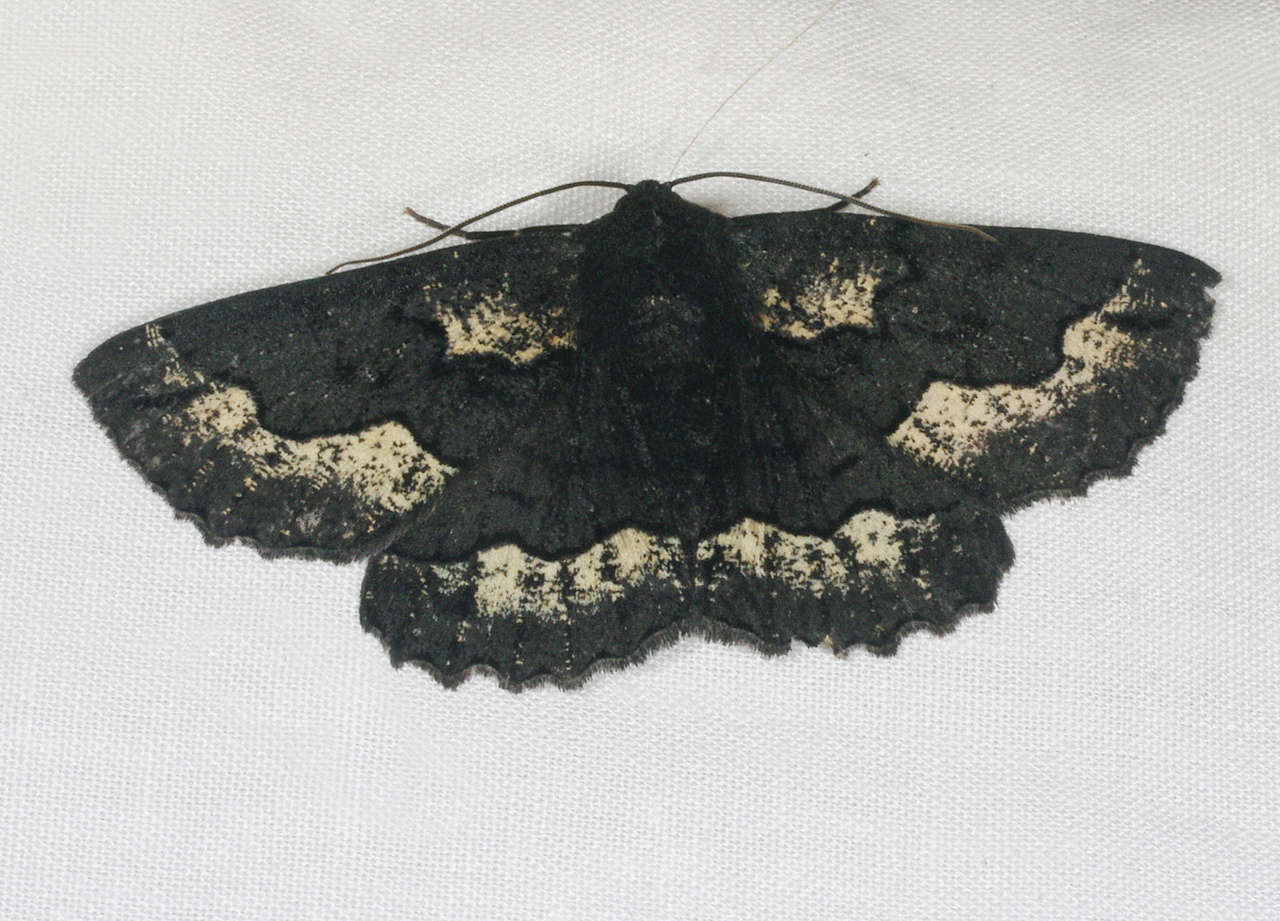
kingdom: Animalia
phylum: Arthropoda
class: Insecta
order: Lepidoptera
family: Geometridae
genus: Melanodes
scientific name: Melanodes anthracitaria
